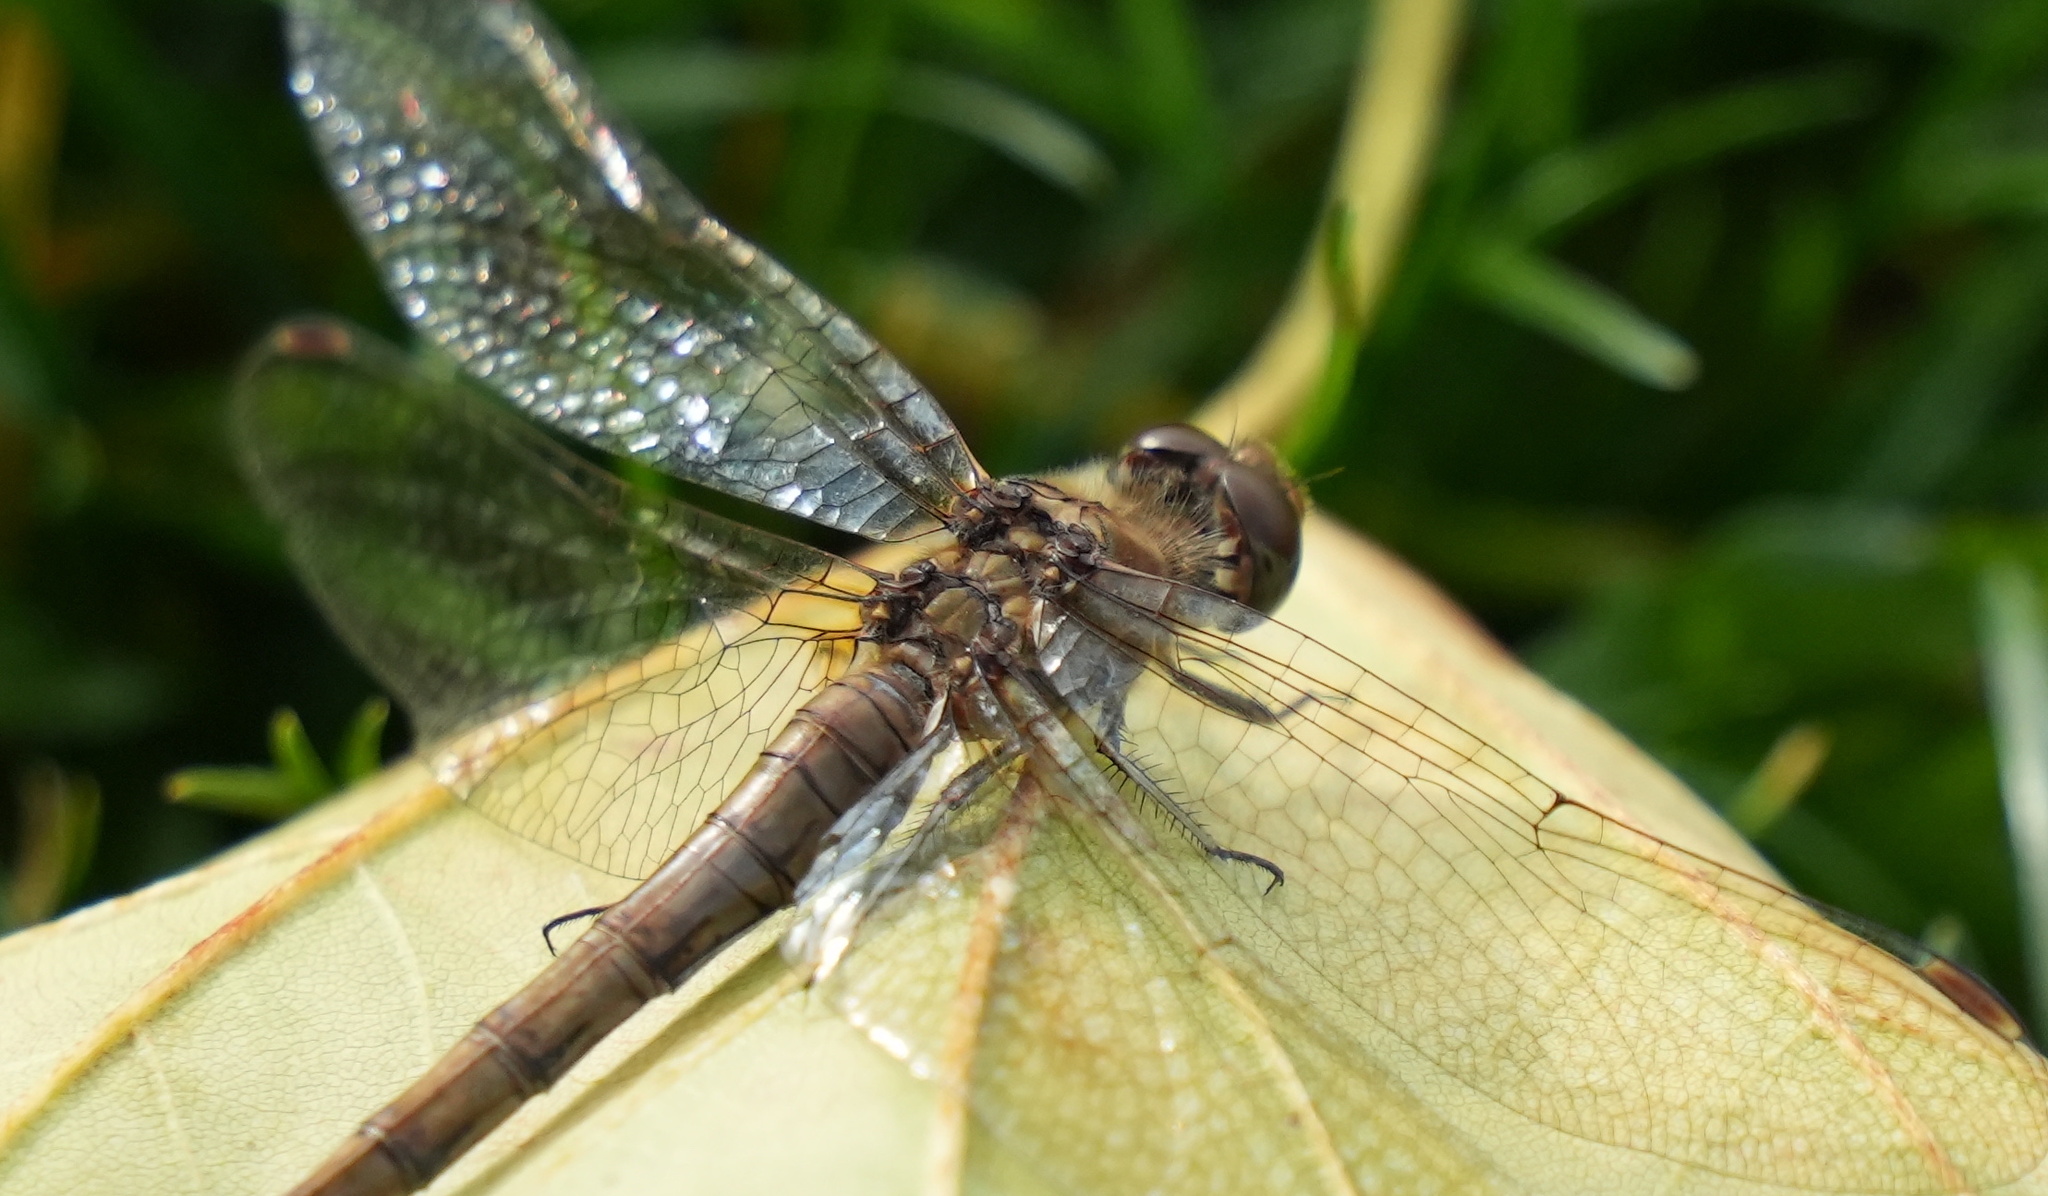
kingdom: Animalia
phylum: Arthropoda
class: Insecta
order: Odonata
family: Libellulidae
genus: Sympetrum
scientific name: Sympetrum striolatum
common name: Common darter
